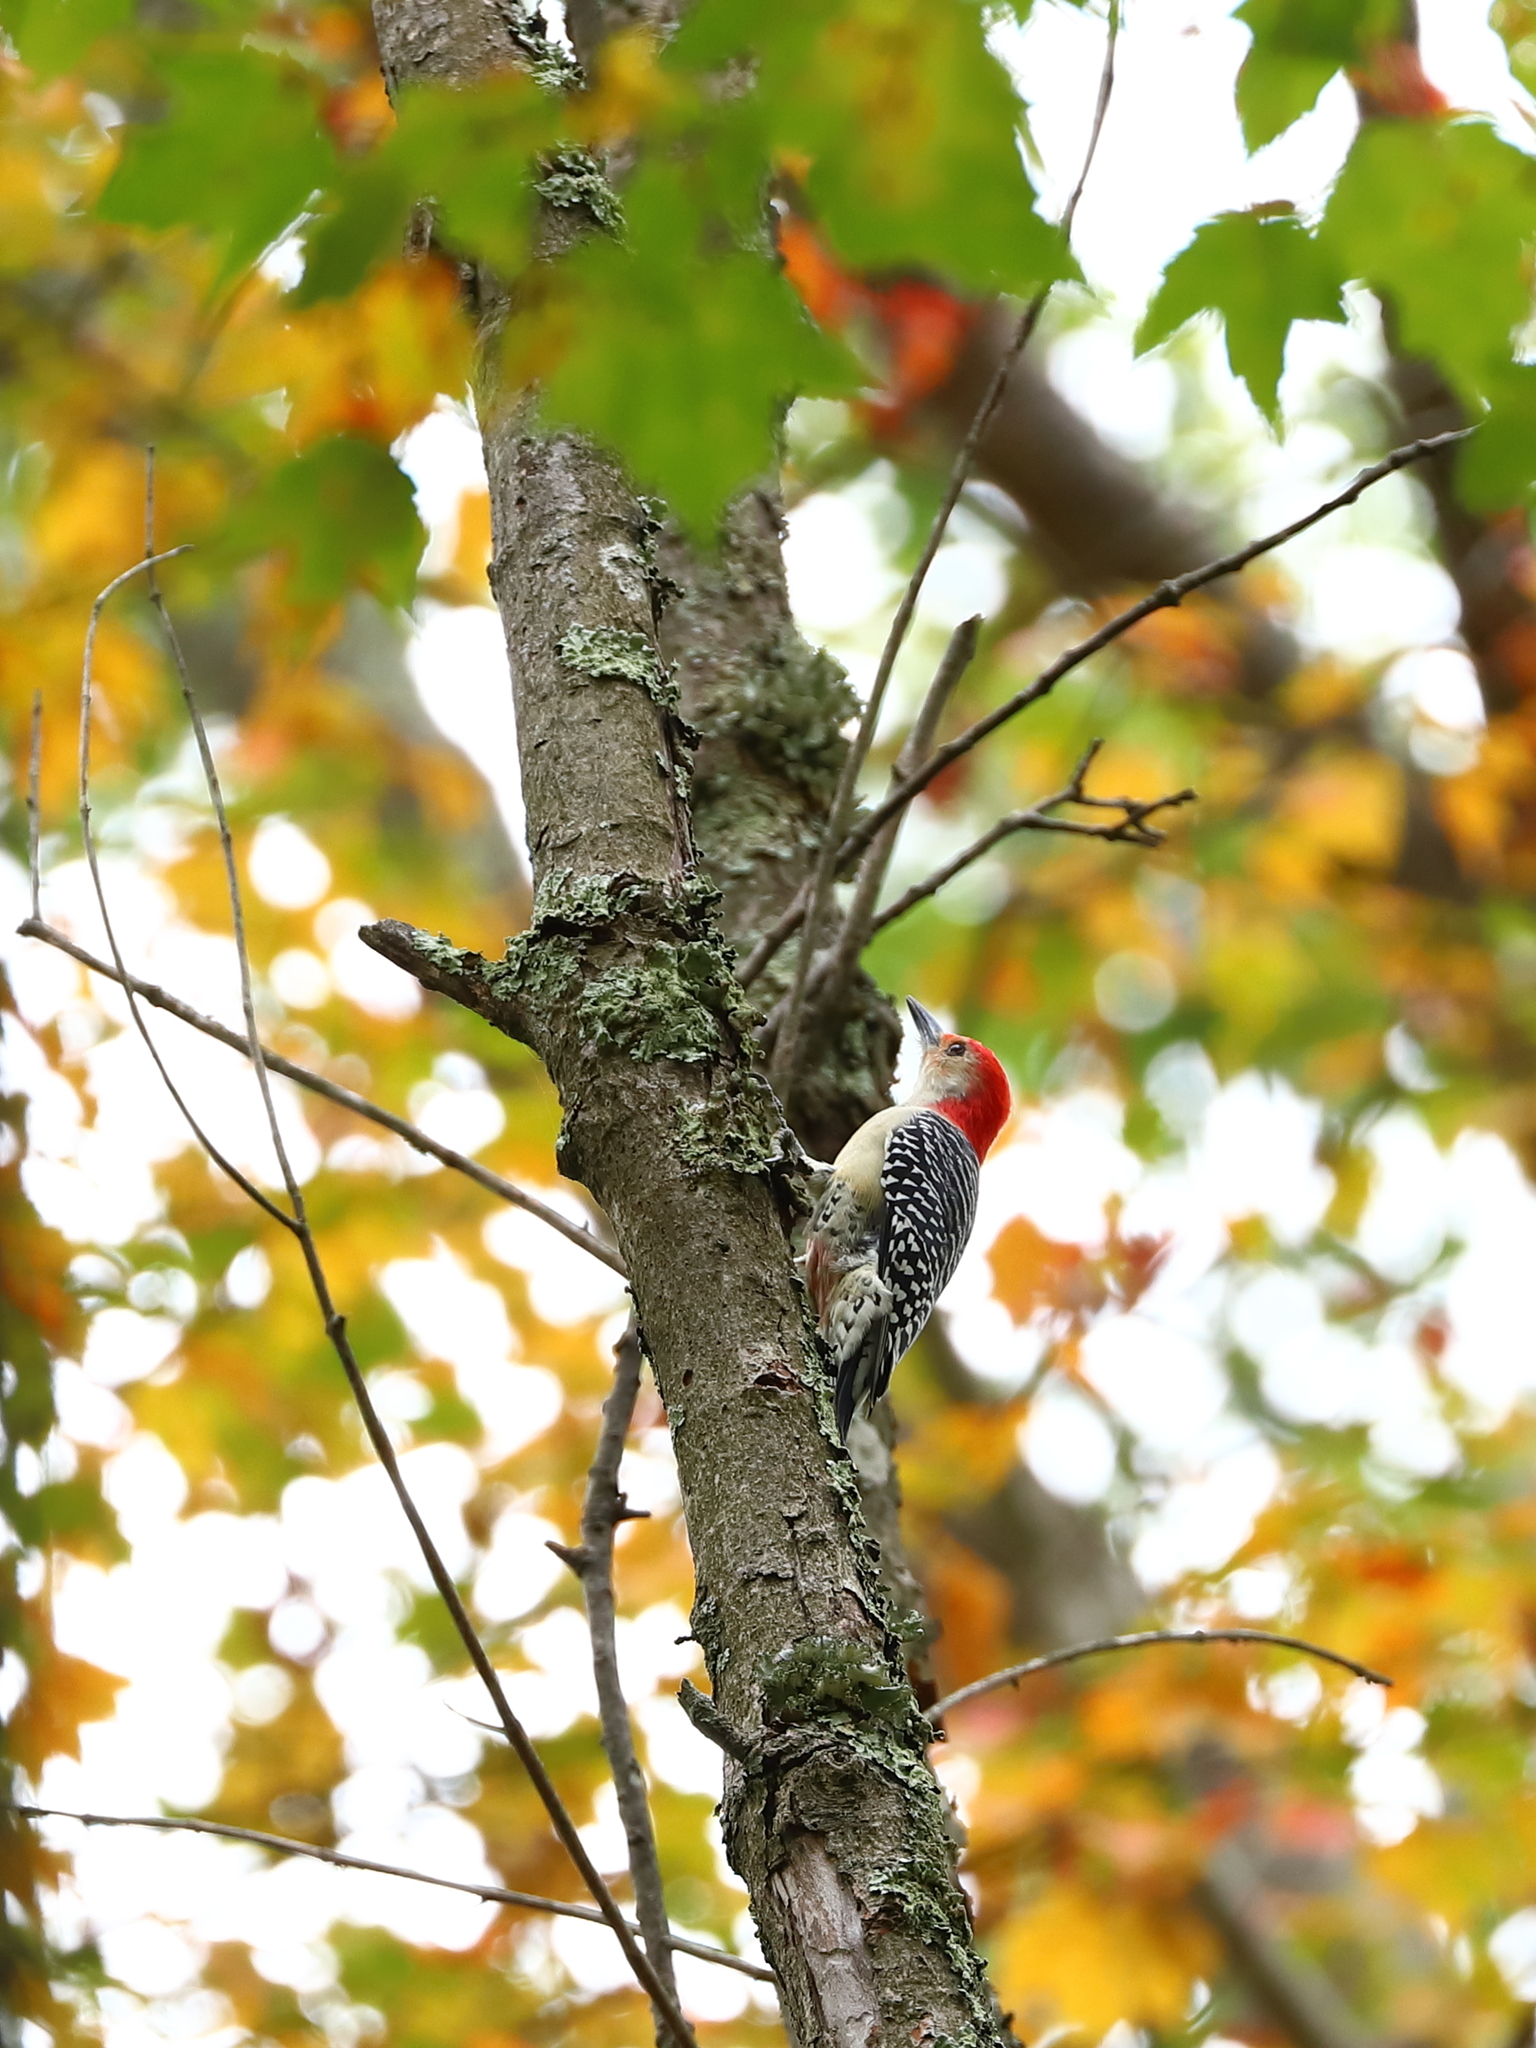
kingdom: Animalia
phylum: Chordata
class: Aves
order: Piciformes
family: Picidae
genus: Melanerpes
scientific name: Melanerpes carolinus
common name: Red-bellied woodpecker
